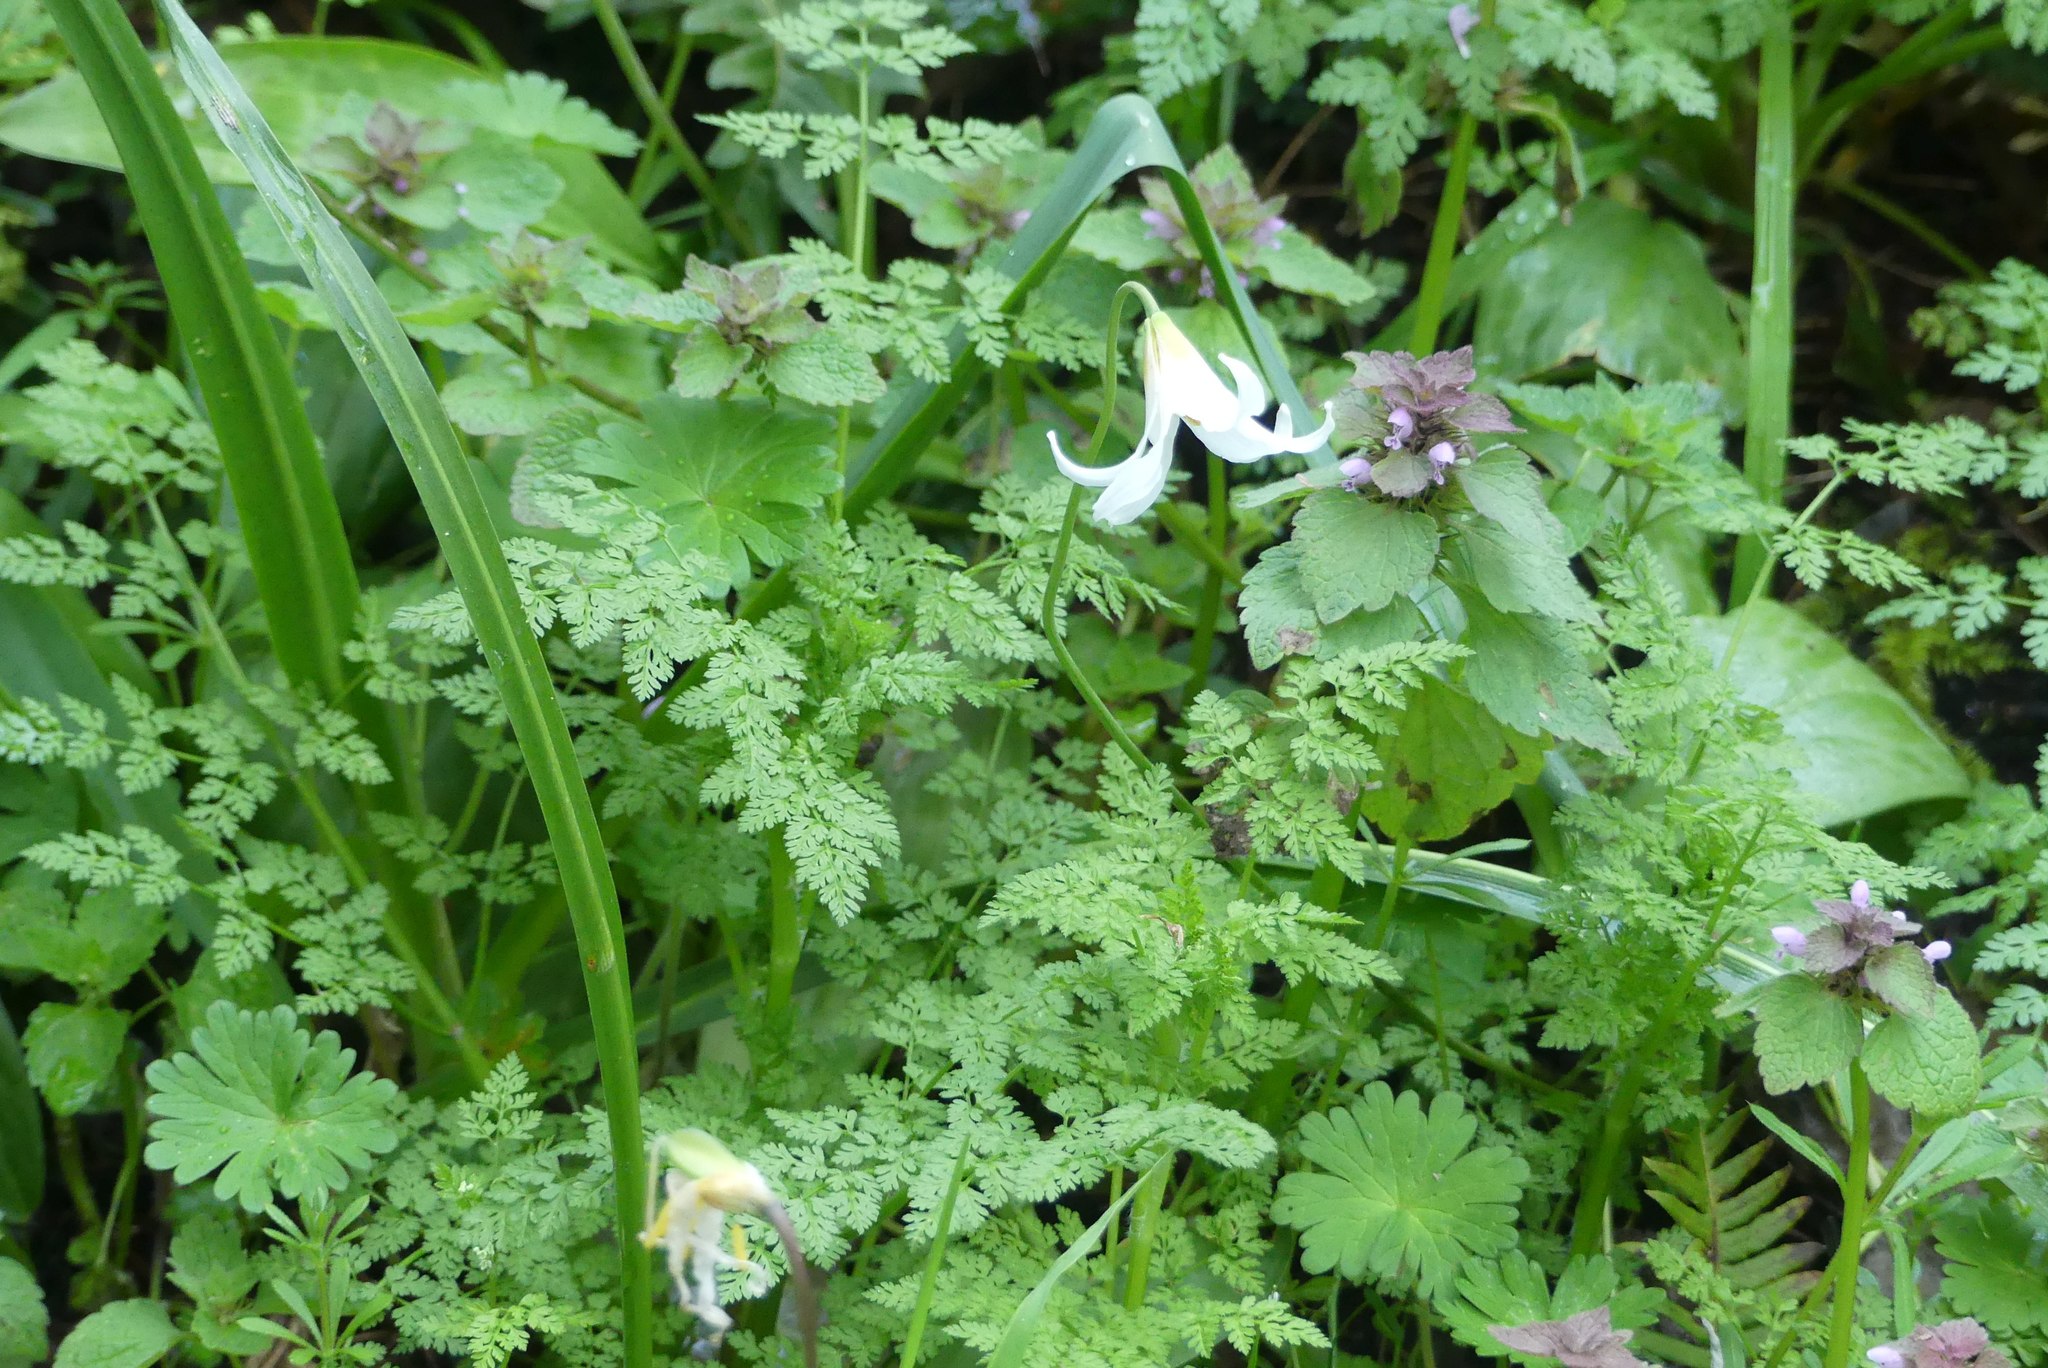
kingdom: Plantae
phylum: Tracheophyta
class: Liliopsida
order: Liliales
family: Liliaceae
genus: Erythronium
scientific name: Erythronium oregonum
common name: Giant adder's-tongue
